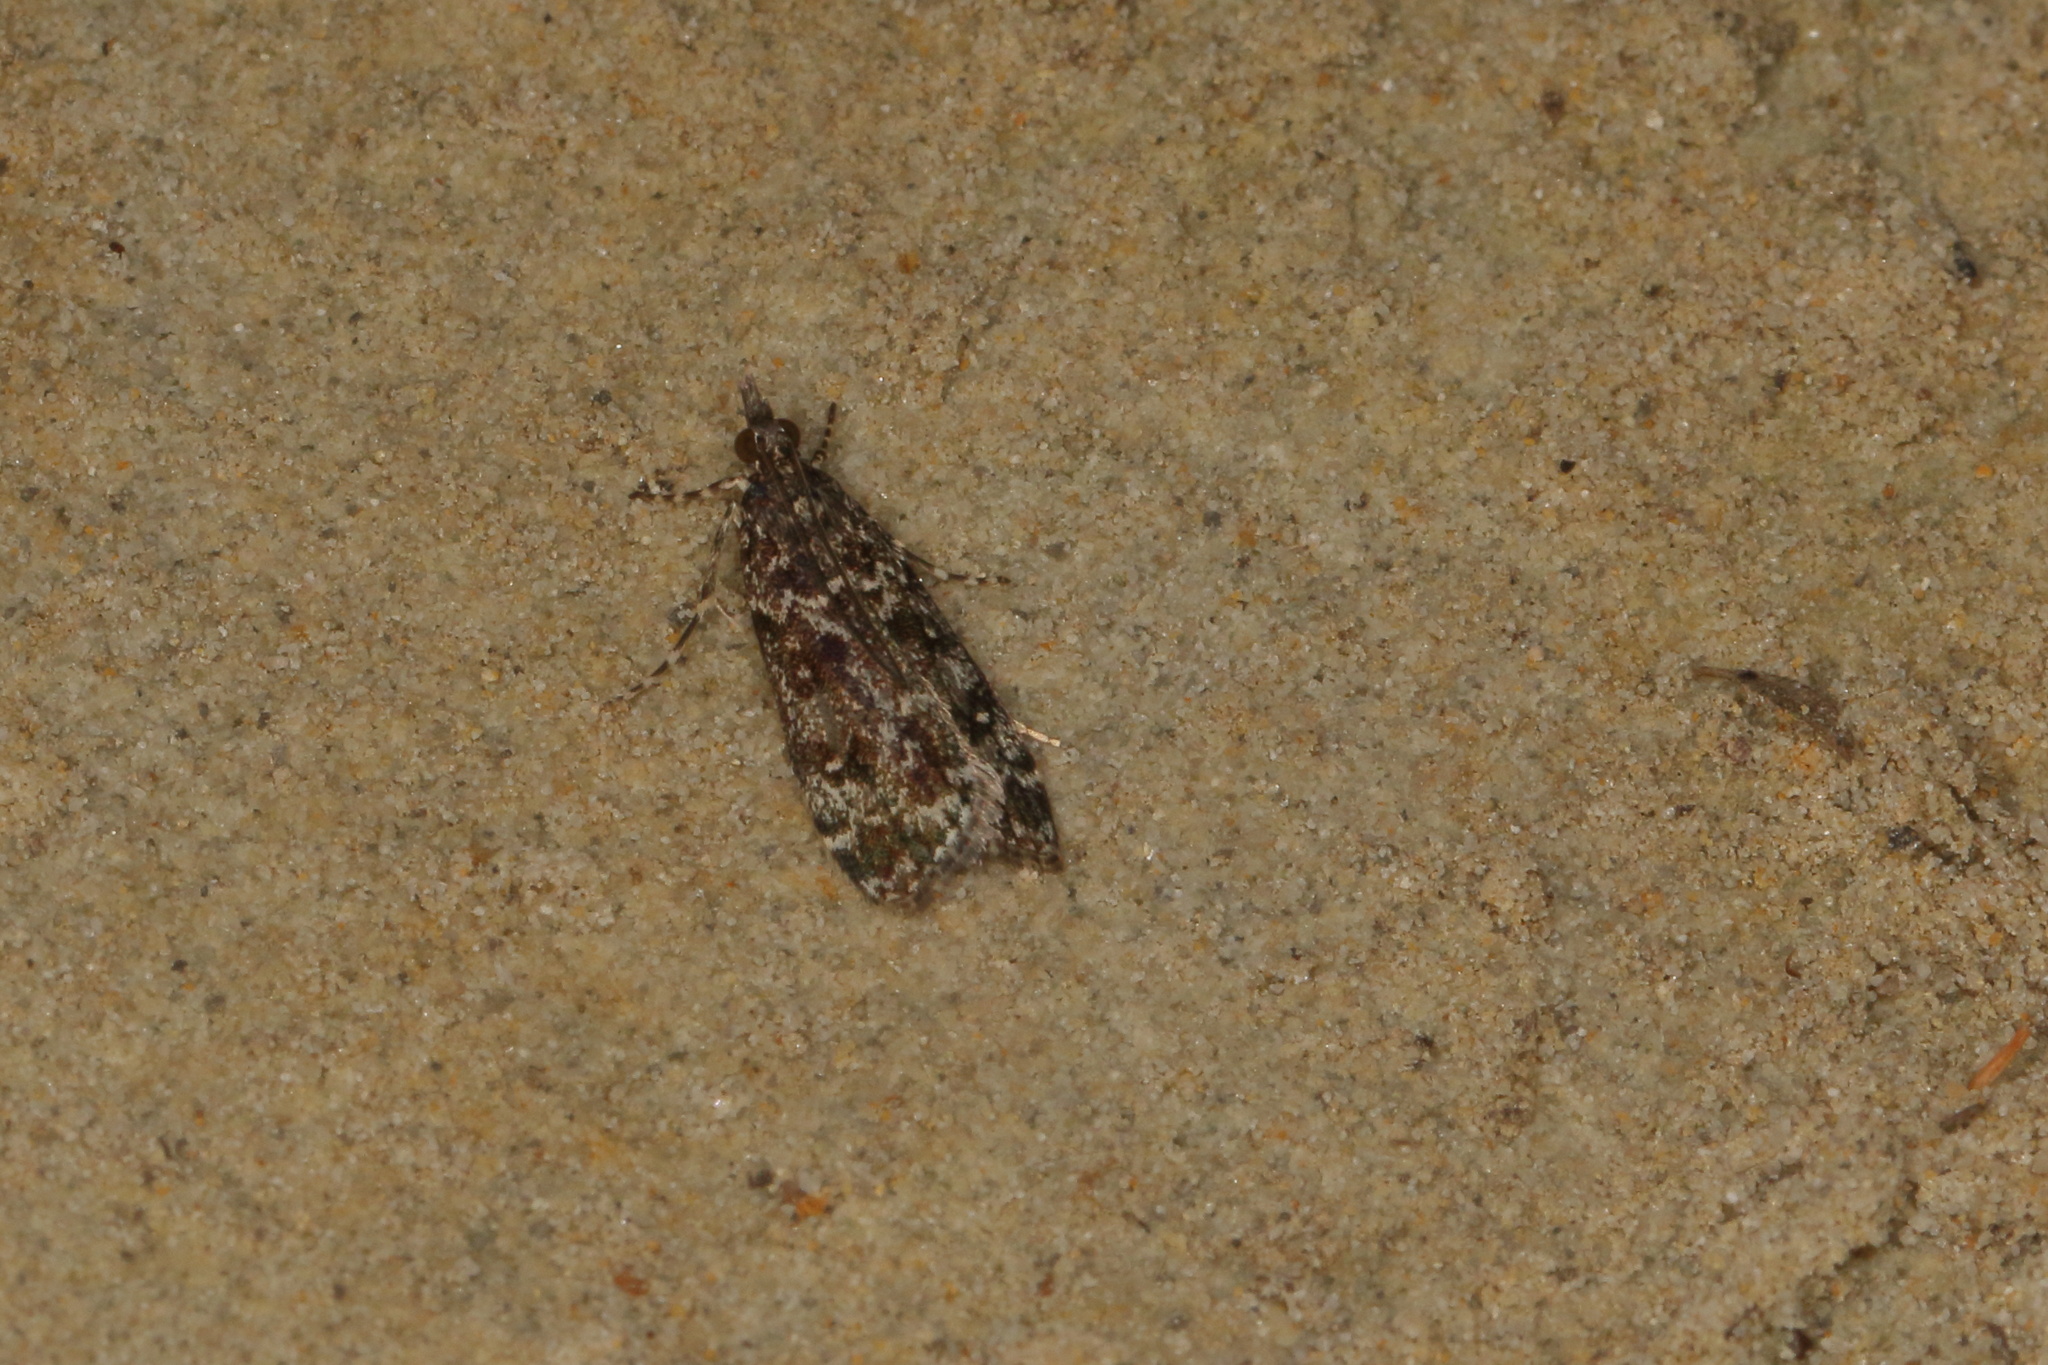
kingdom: Animalia
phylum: Arthropoda
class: Insecta
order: Lepidoptera
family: Crambidae
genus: Eudonia
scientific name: Eudonia philerga
